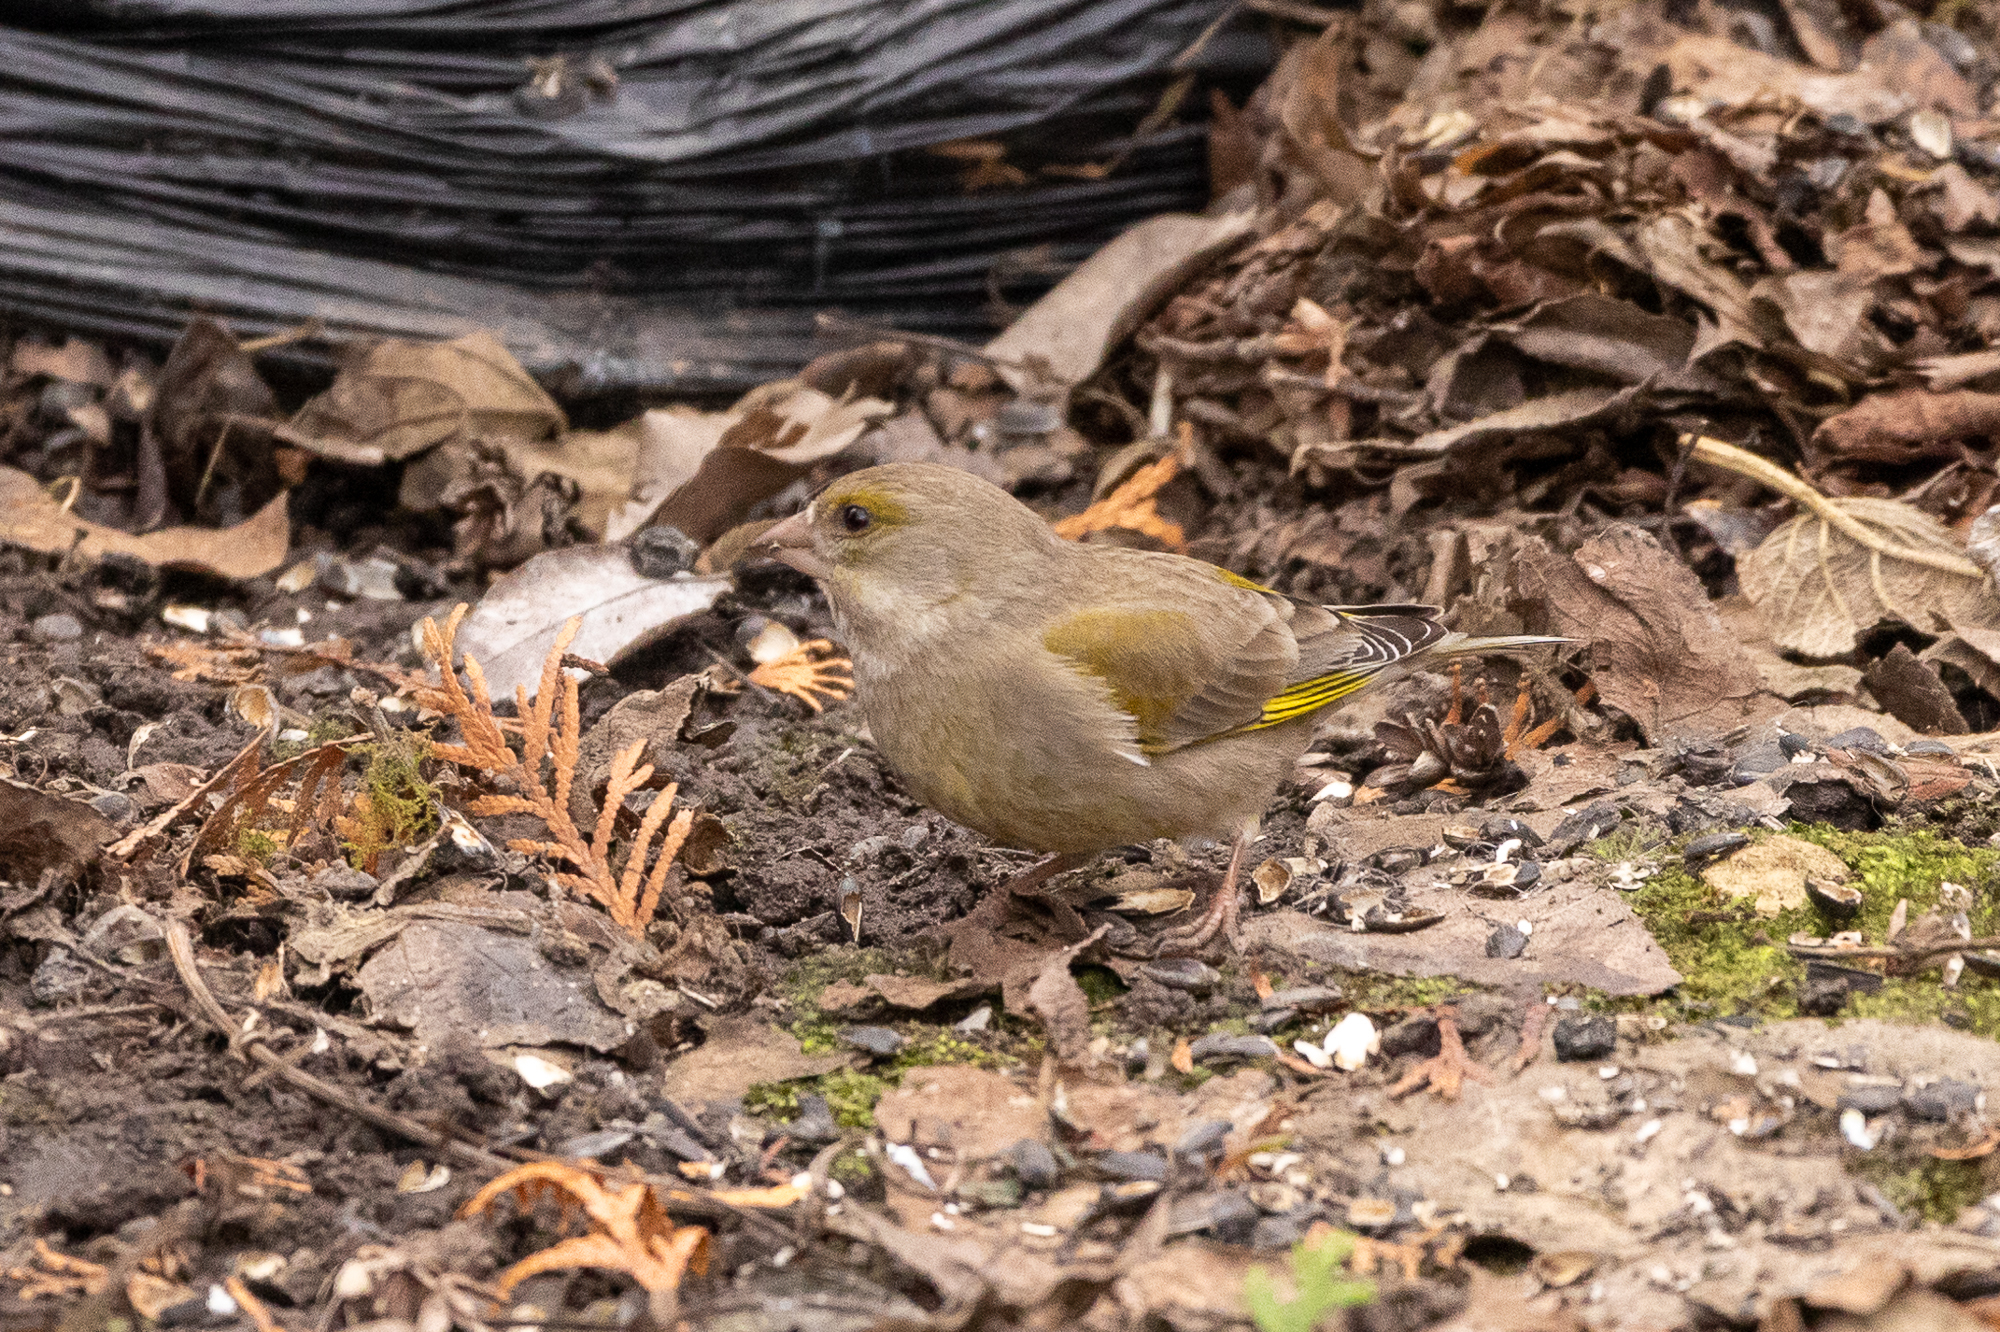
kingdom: Plantae
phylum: Tracheophyta
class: Liliopsida
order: Poales
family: Poaceae
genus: Chloris
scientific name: Chloris chloris
